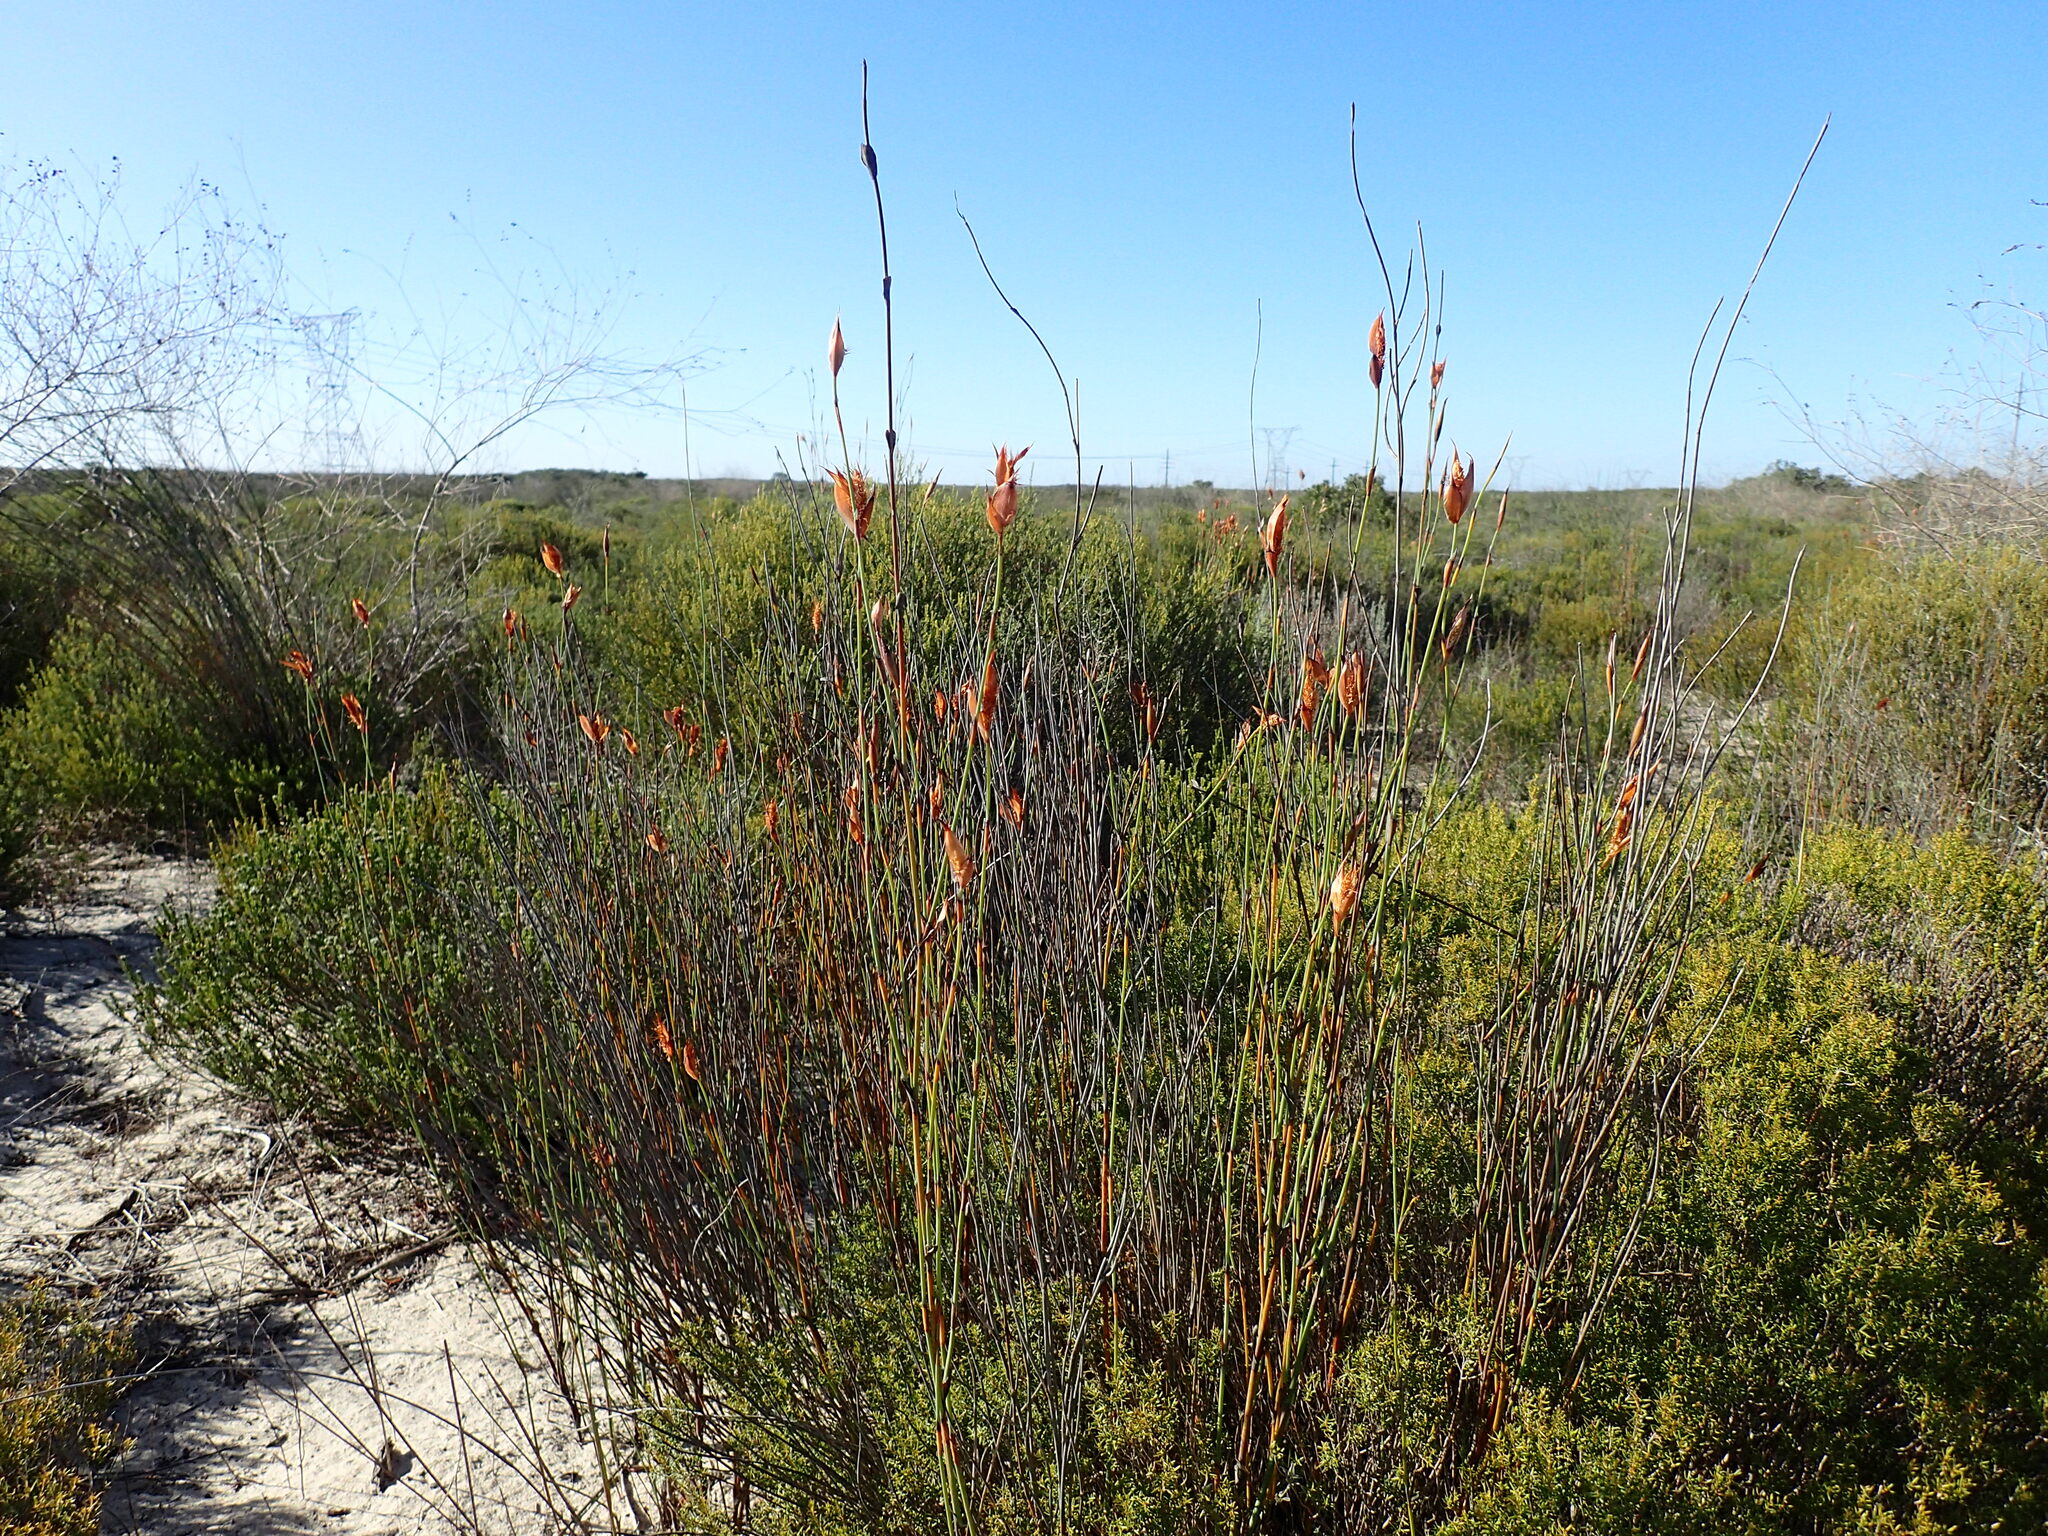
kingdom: Plantae
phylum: Tracheophyta
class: Liliopsida
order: Poales
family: Restionaceae
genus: Willdenowia
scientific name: Willdenowia incurvata
